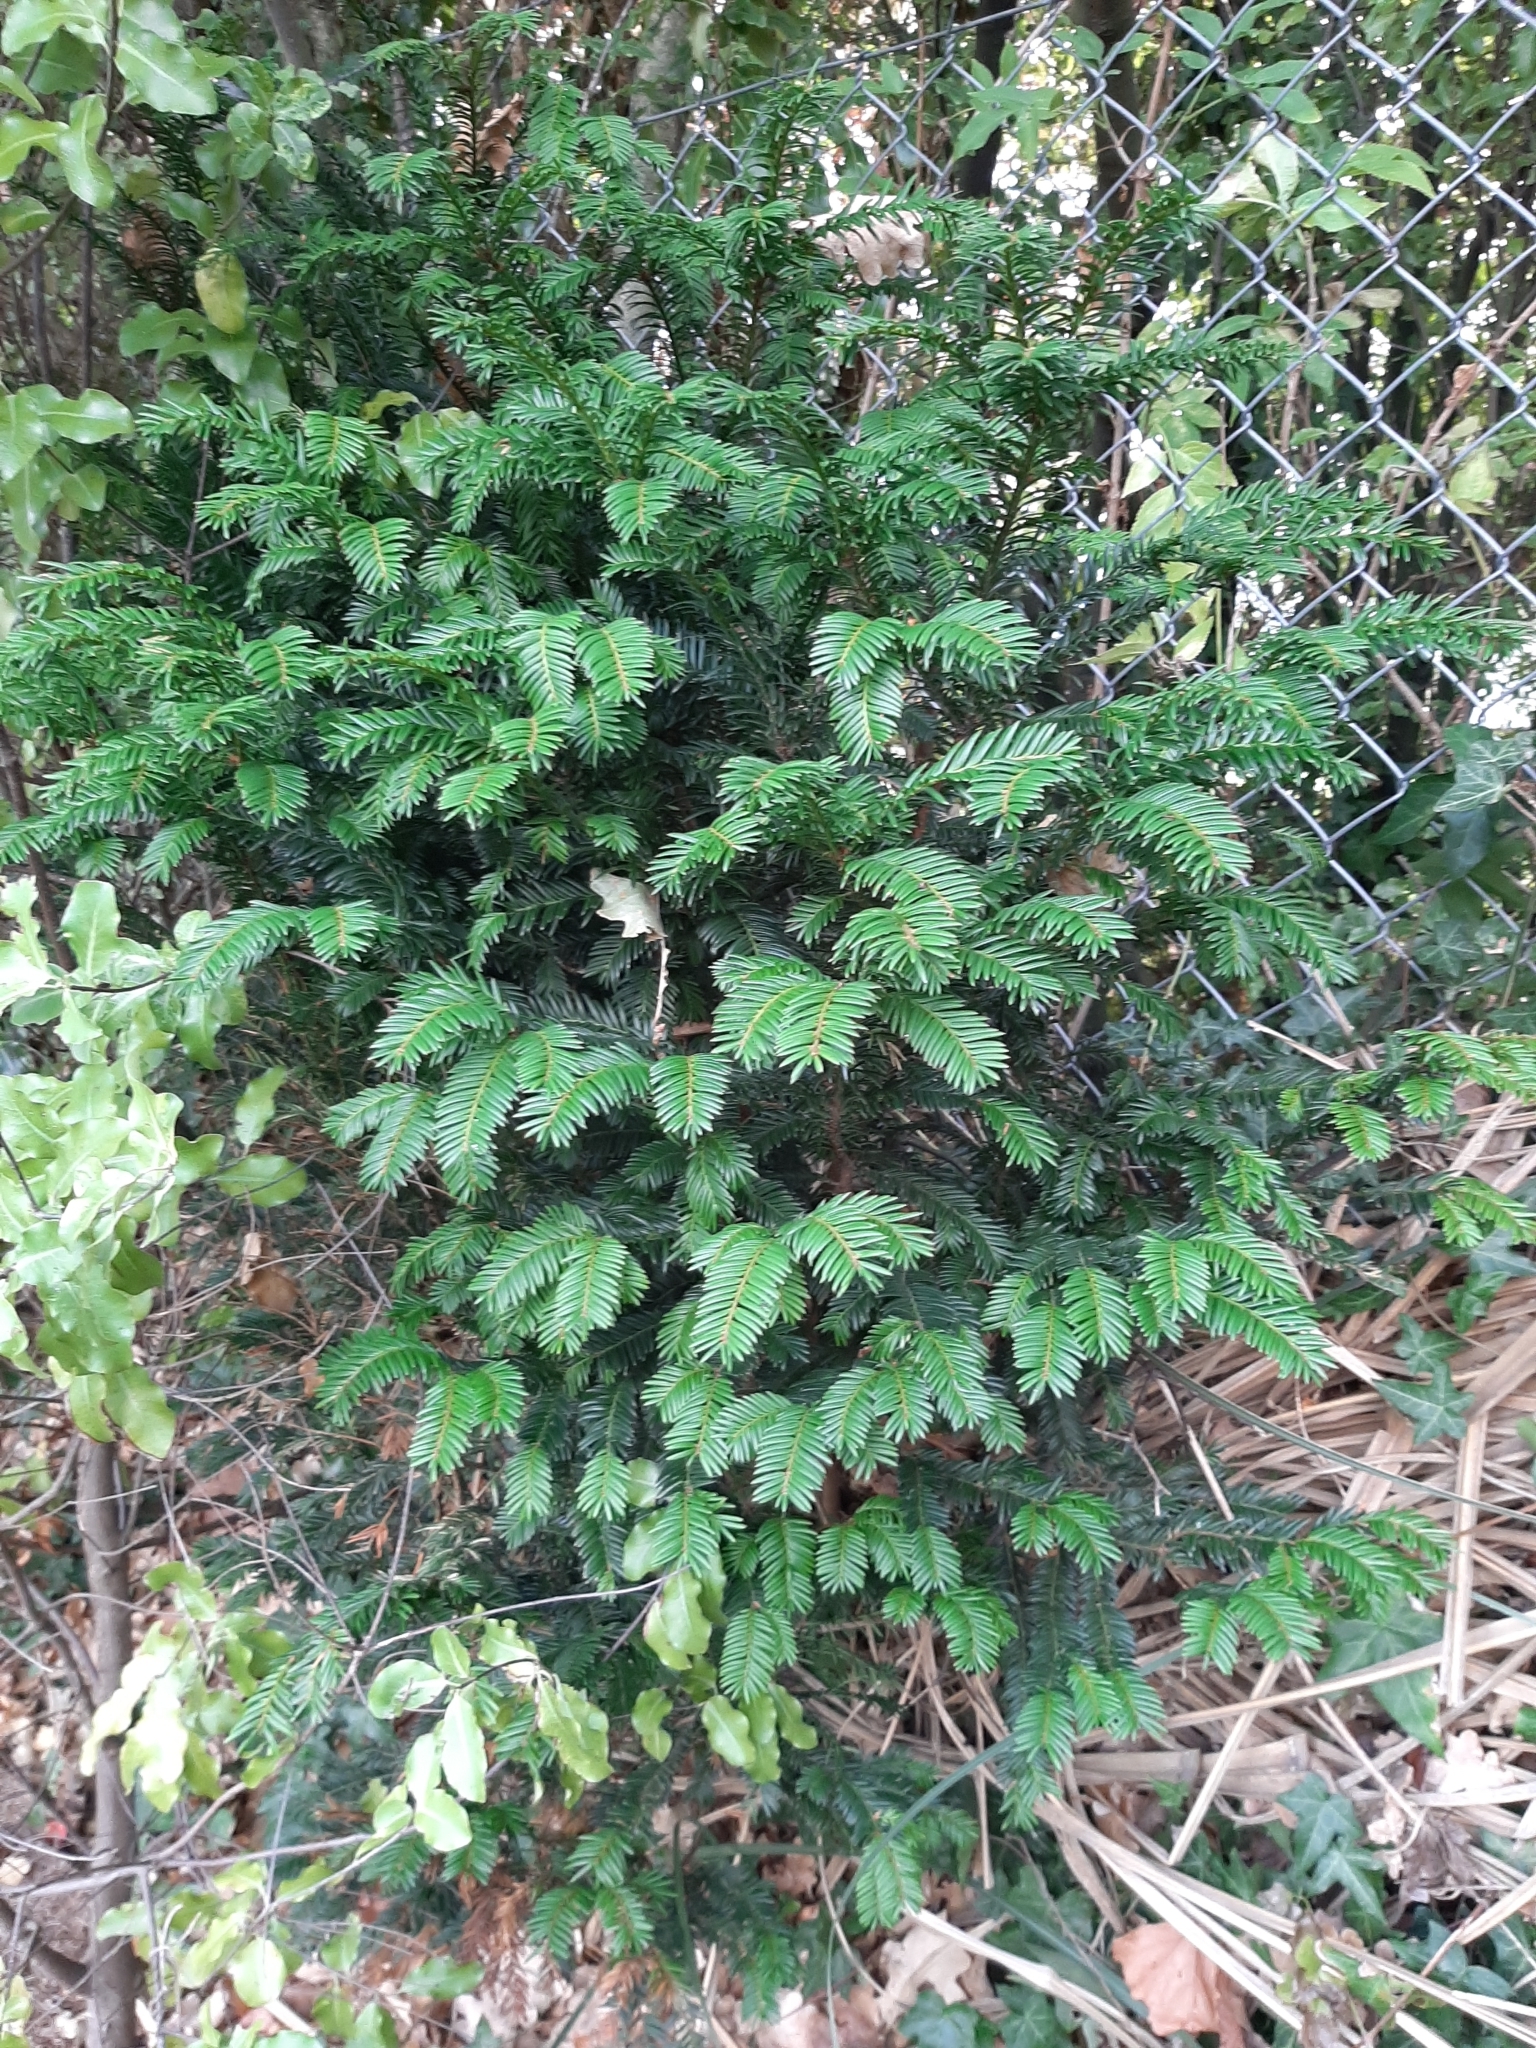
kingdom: Plantae
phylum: Tracheophyta
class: Pinopsida
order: Pinales
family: Taxaceae
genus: Taxus
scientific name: Taxus baccata
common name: Yew
